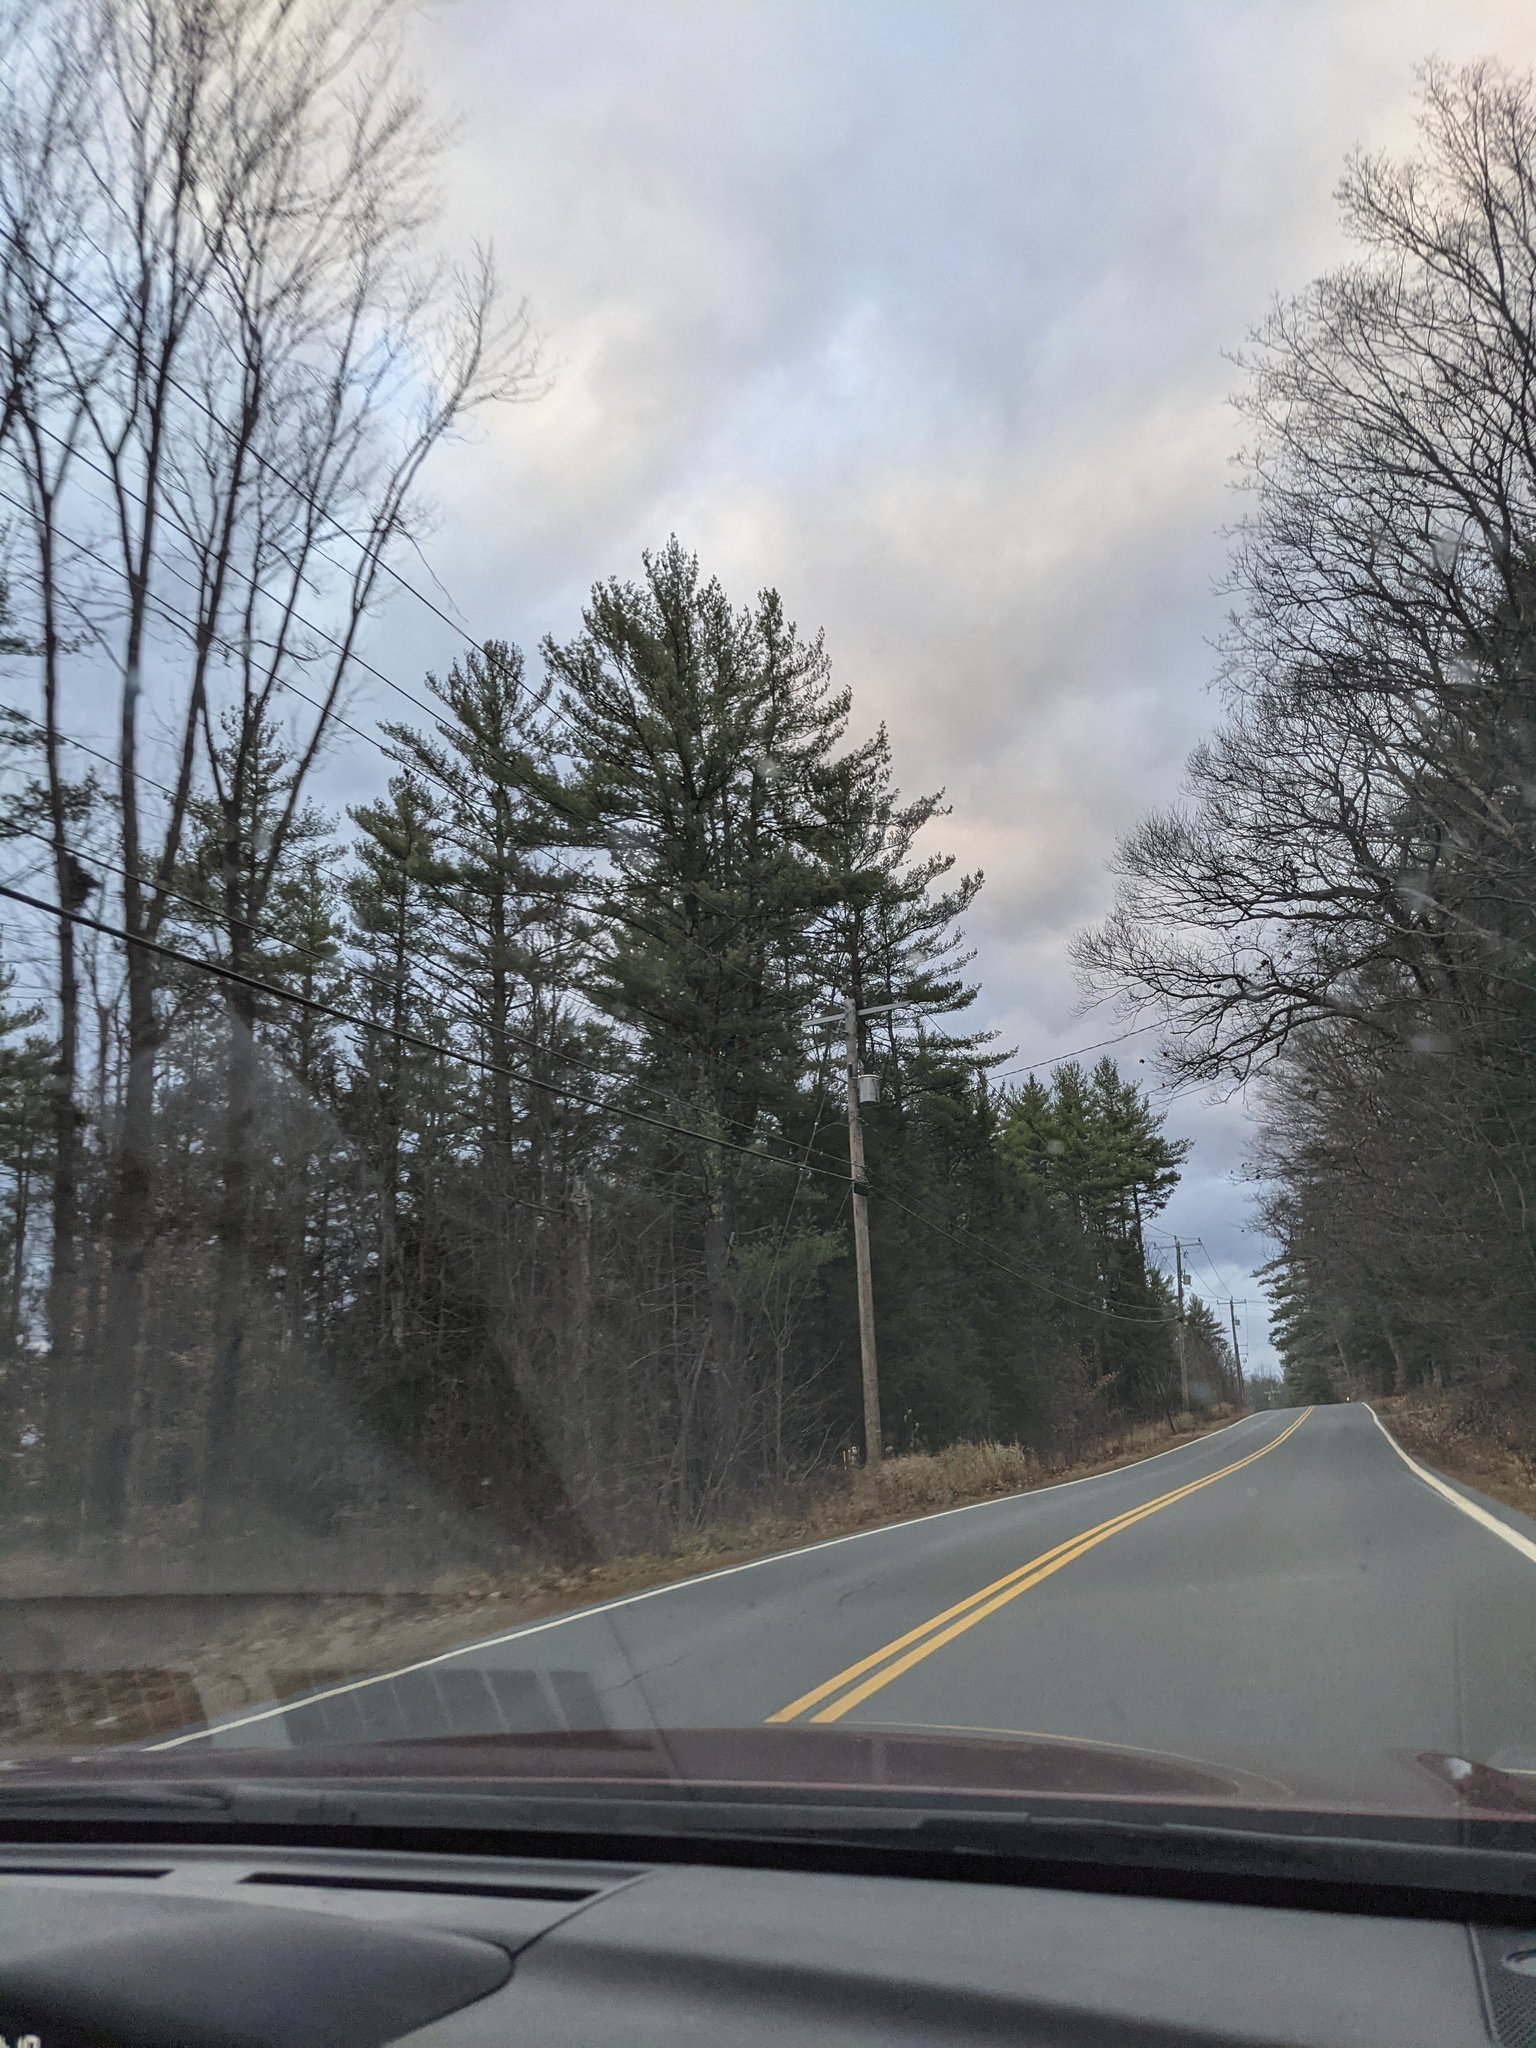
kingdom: Plantae
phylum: Tracheophyta
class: Pinopsida
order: Pinales
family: Pinaceae
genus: Pinus
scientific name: Pinus strobus
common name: Weymouth pine
